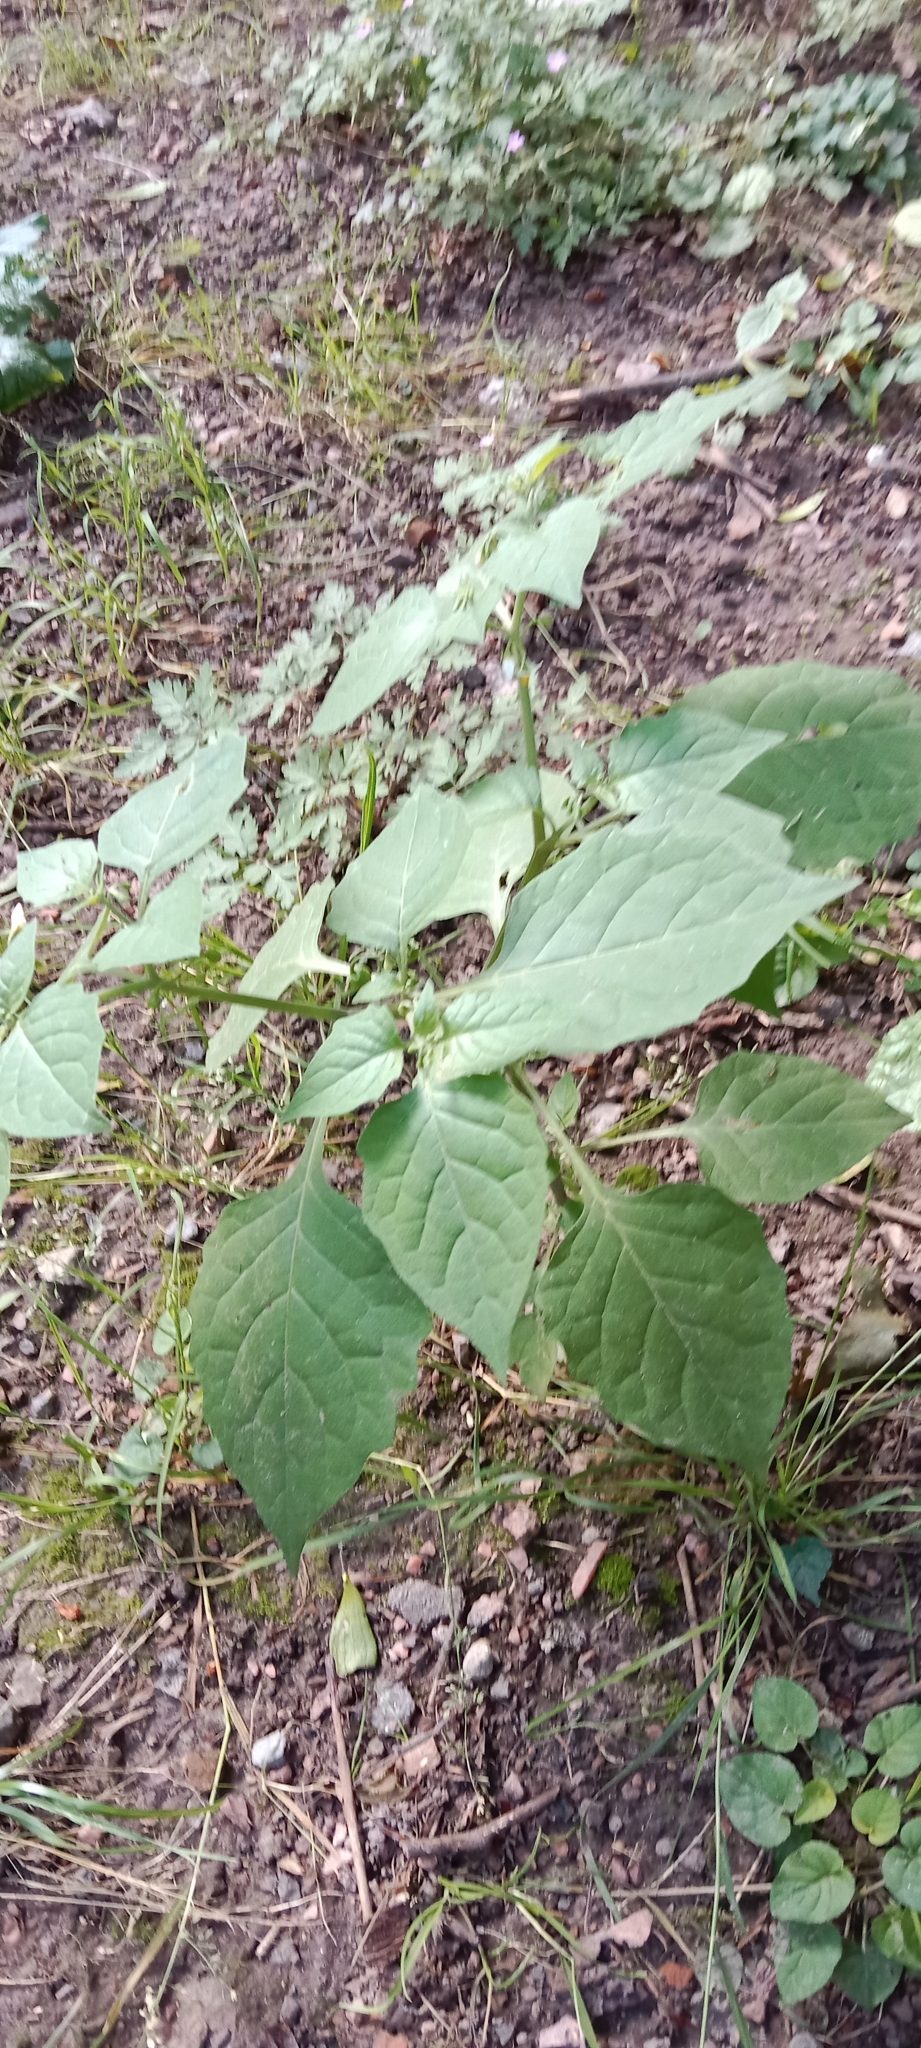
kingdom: Plantae
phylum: Tracheophyta
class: Magnoliopsida
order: Solanales
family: Solanaceae
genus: Solanum
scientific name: Solanum nigrum
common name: Black nightshade
